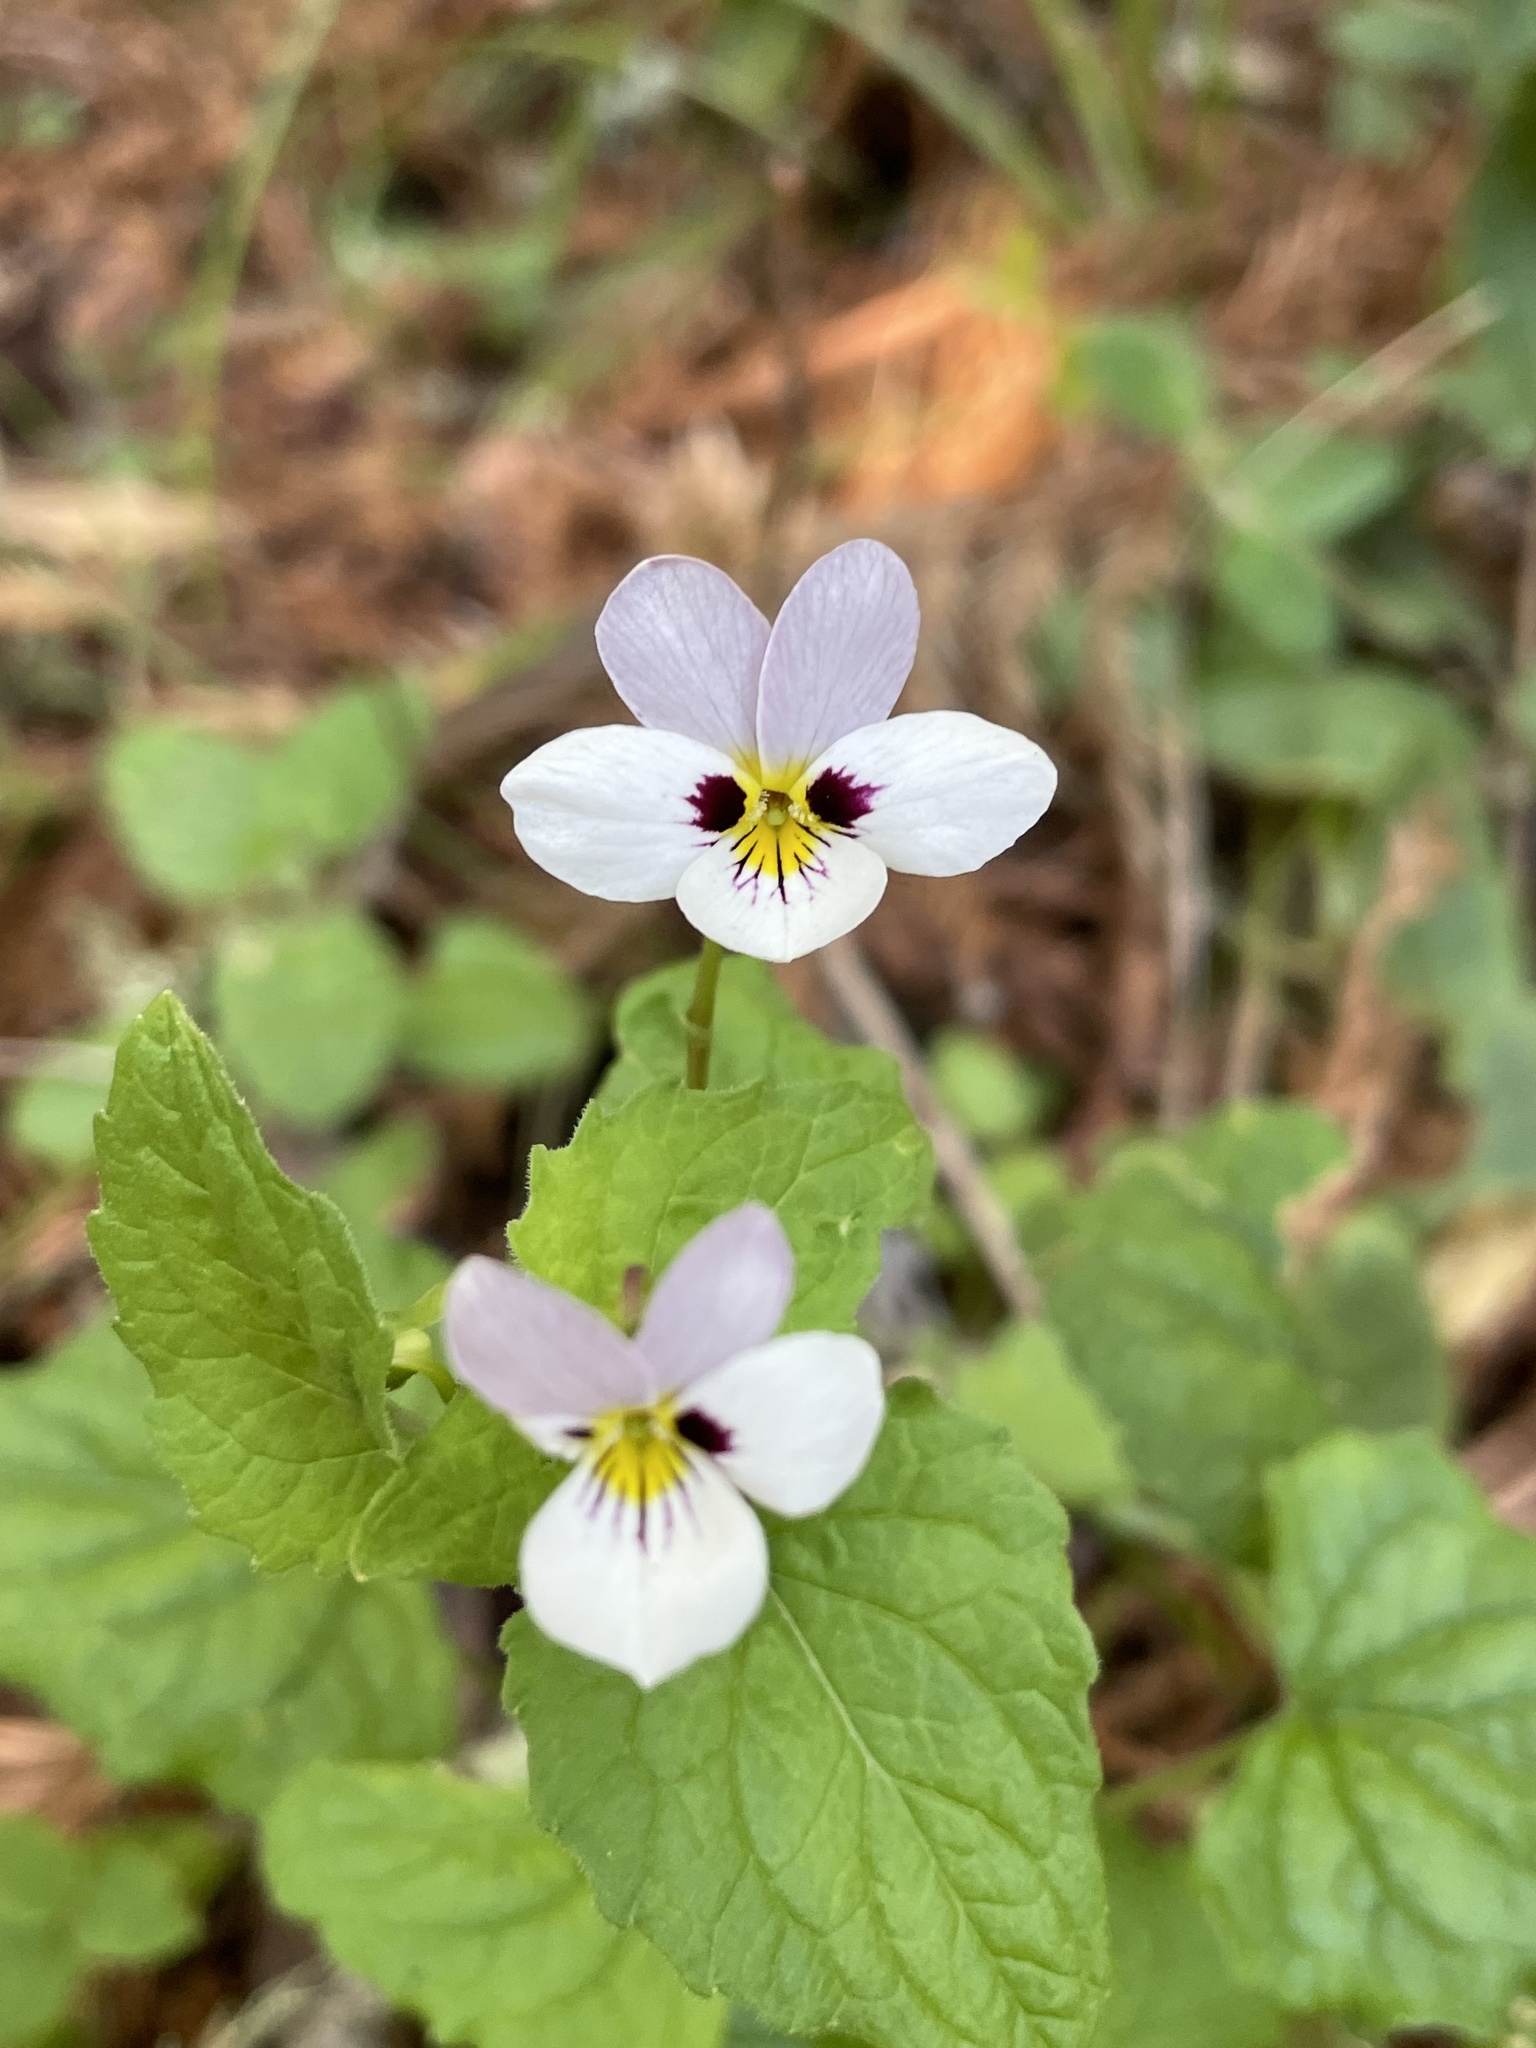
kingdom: Plantae
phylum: Tracheophyta
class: Magnoliopsida
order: Malpighiales
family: Violaceae
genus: Viola
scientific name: Viola ocellata
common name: Western heart's ease
